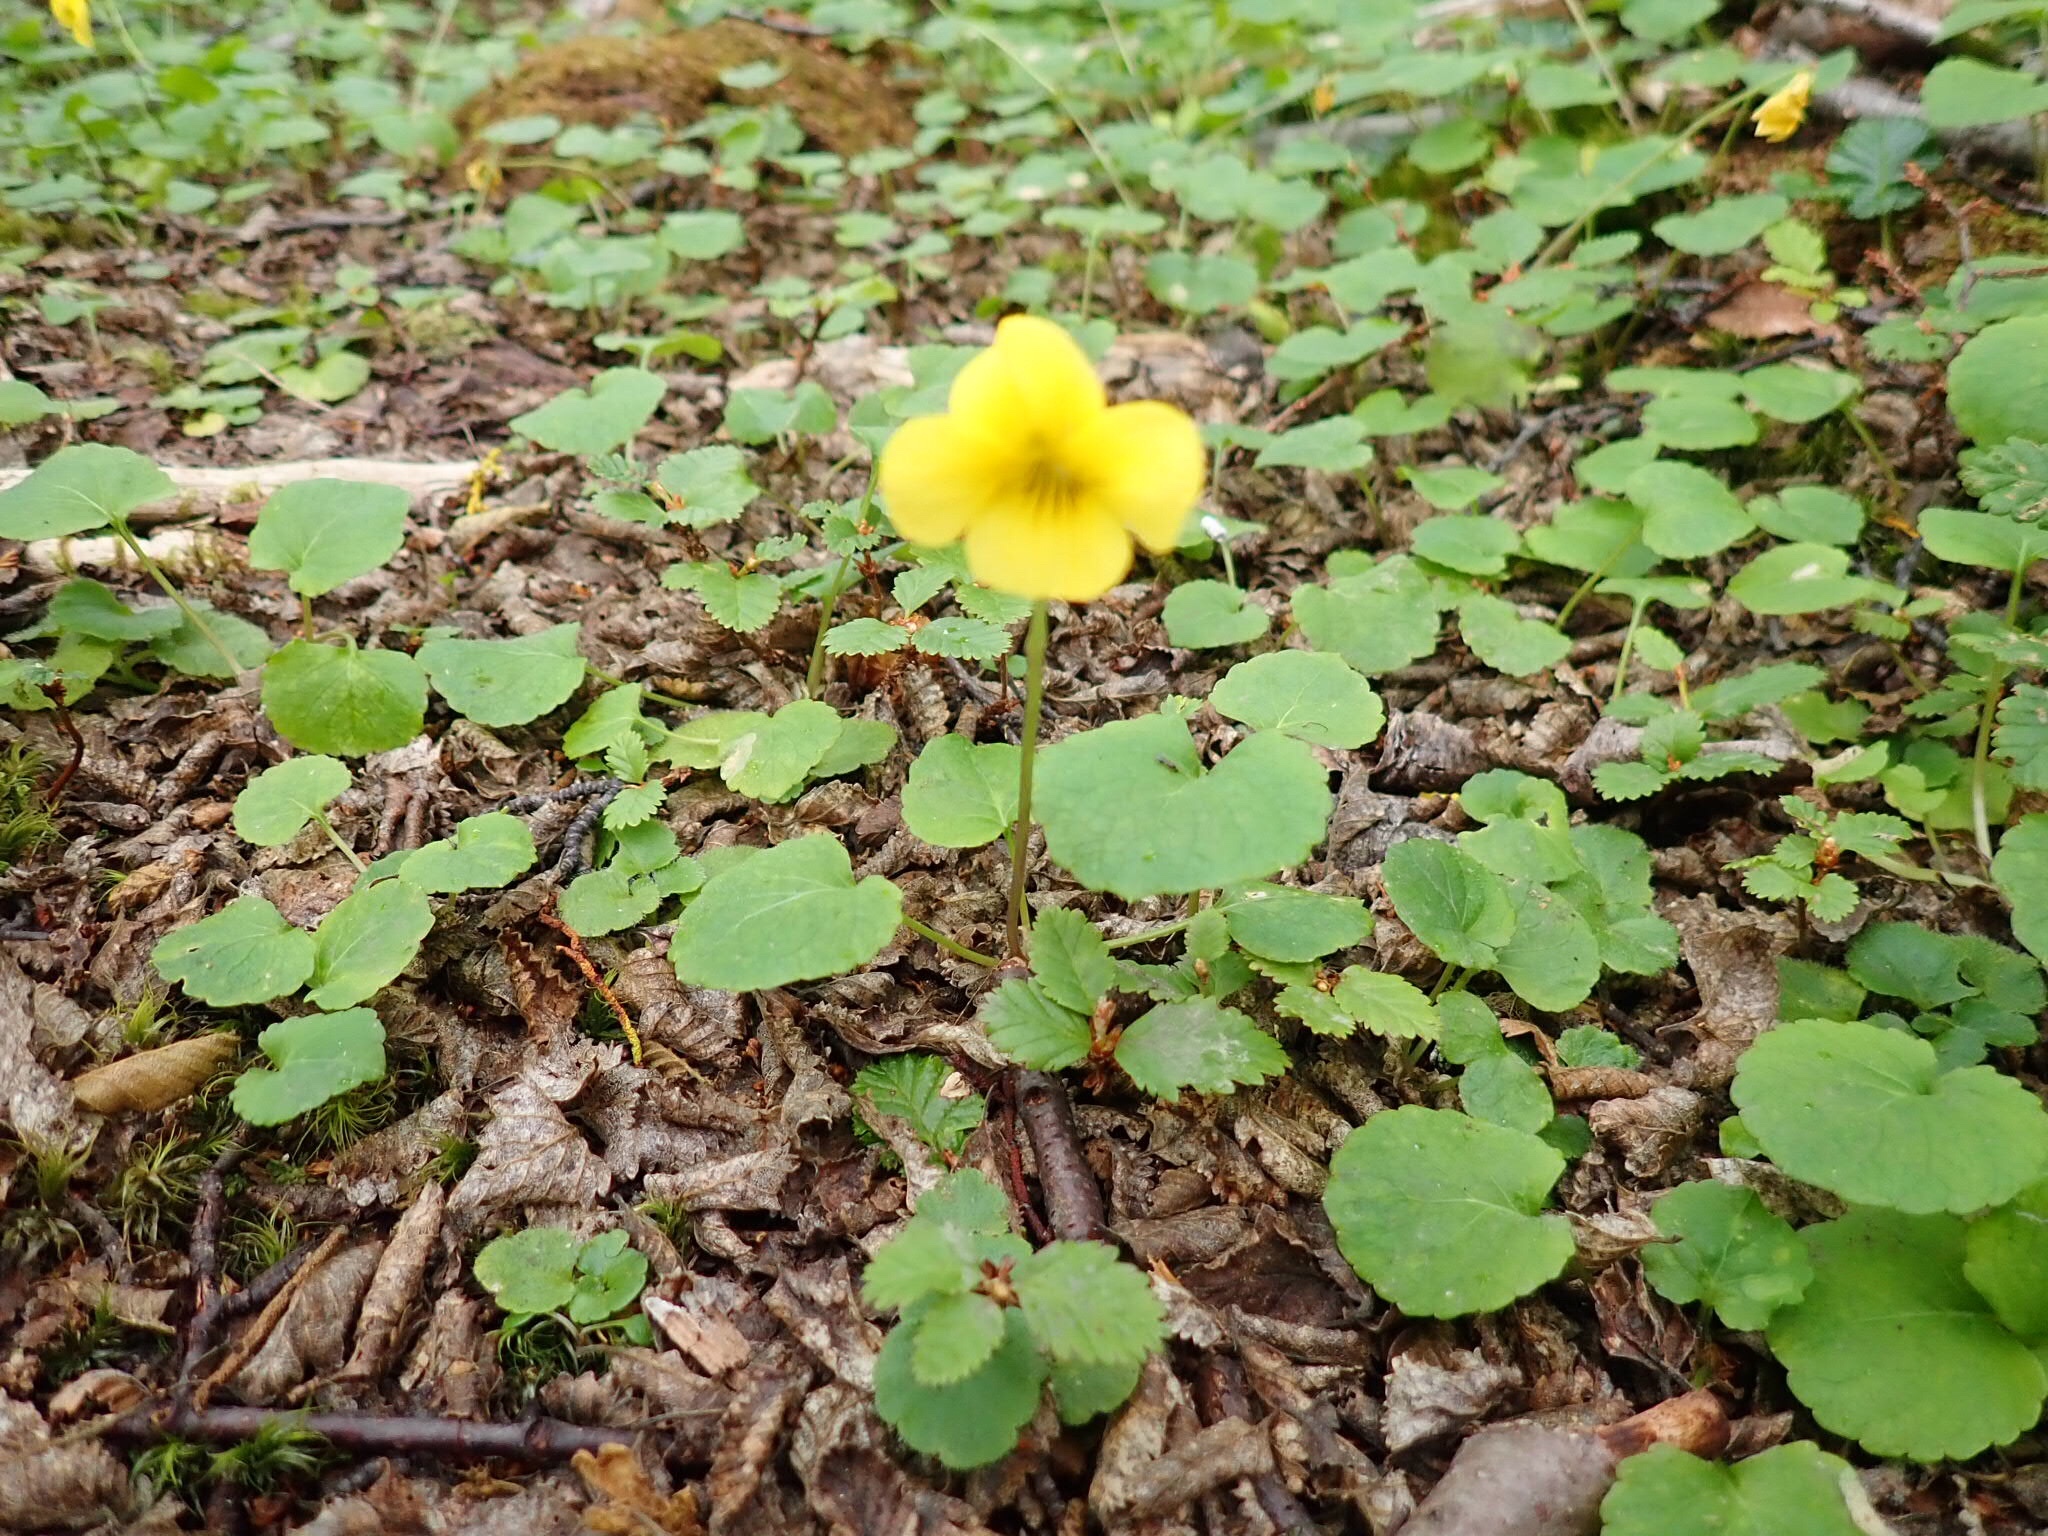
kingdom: Plantae
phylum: Tracheophyta
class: Magnoliopsida
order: Malpighiales
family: Violaceae
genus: Viola
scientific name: Viola reichei
